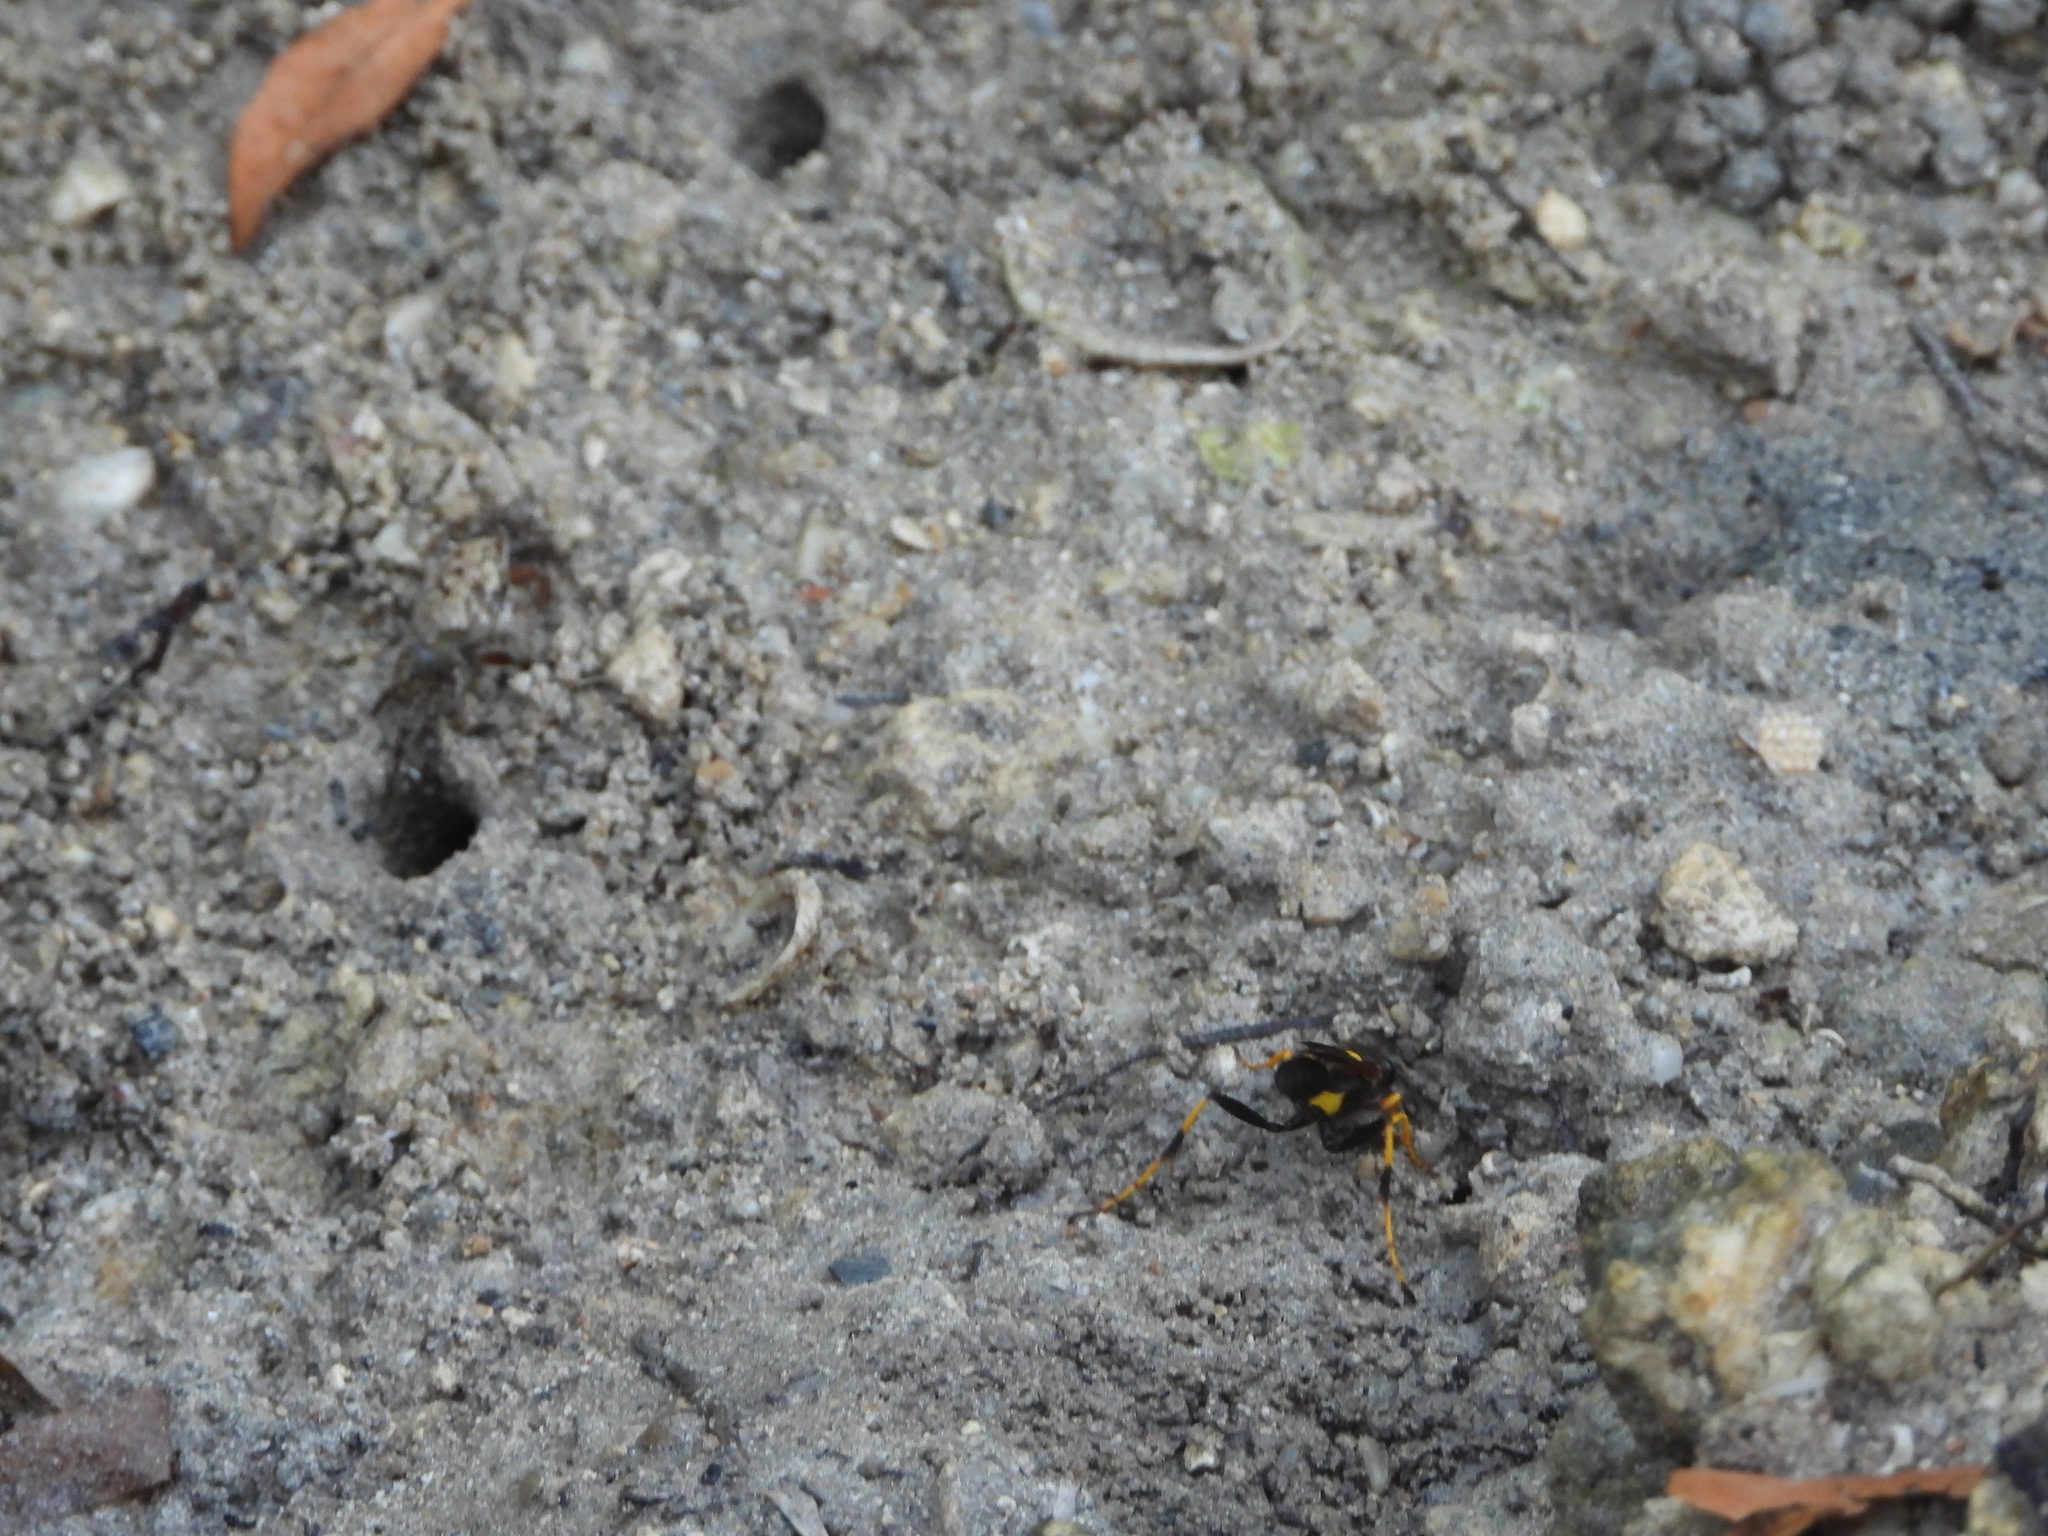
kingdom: Animalia
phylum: Arthropoda
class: Insecta
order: Hymenoptera
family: Sphecidae
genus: Sceliphron
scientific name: Sceliphron caementarium
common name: Mud dauber
